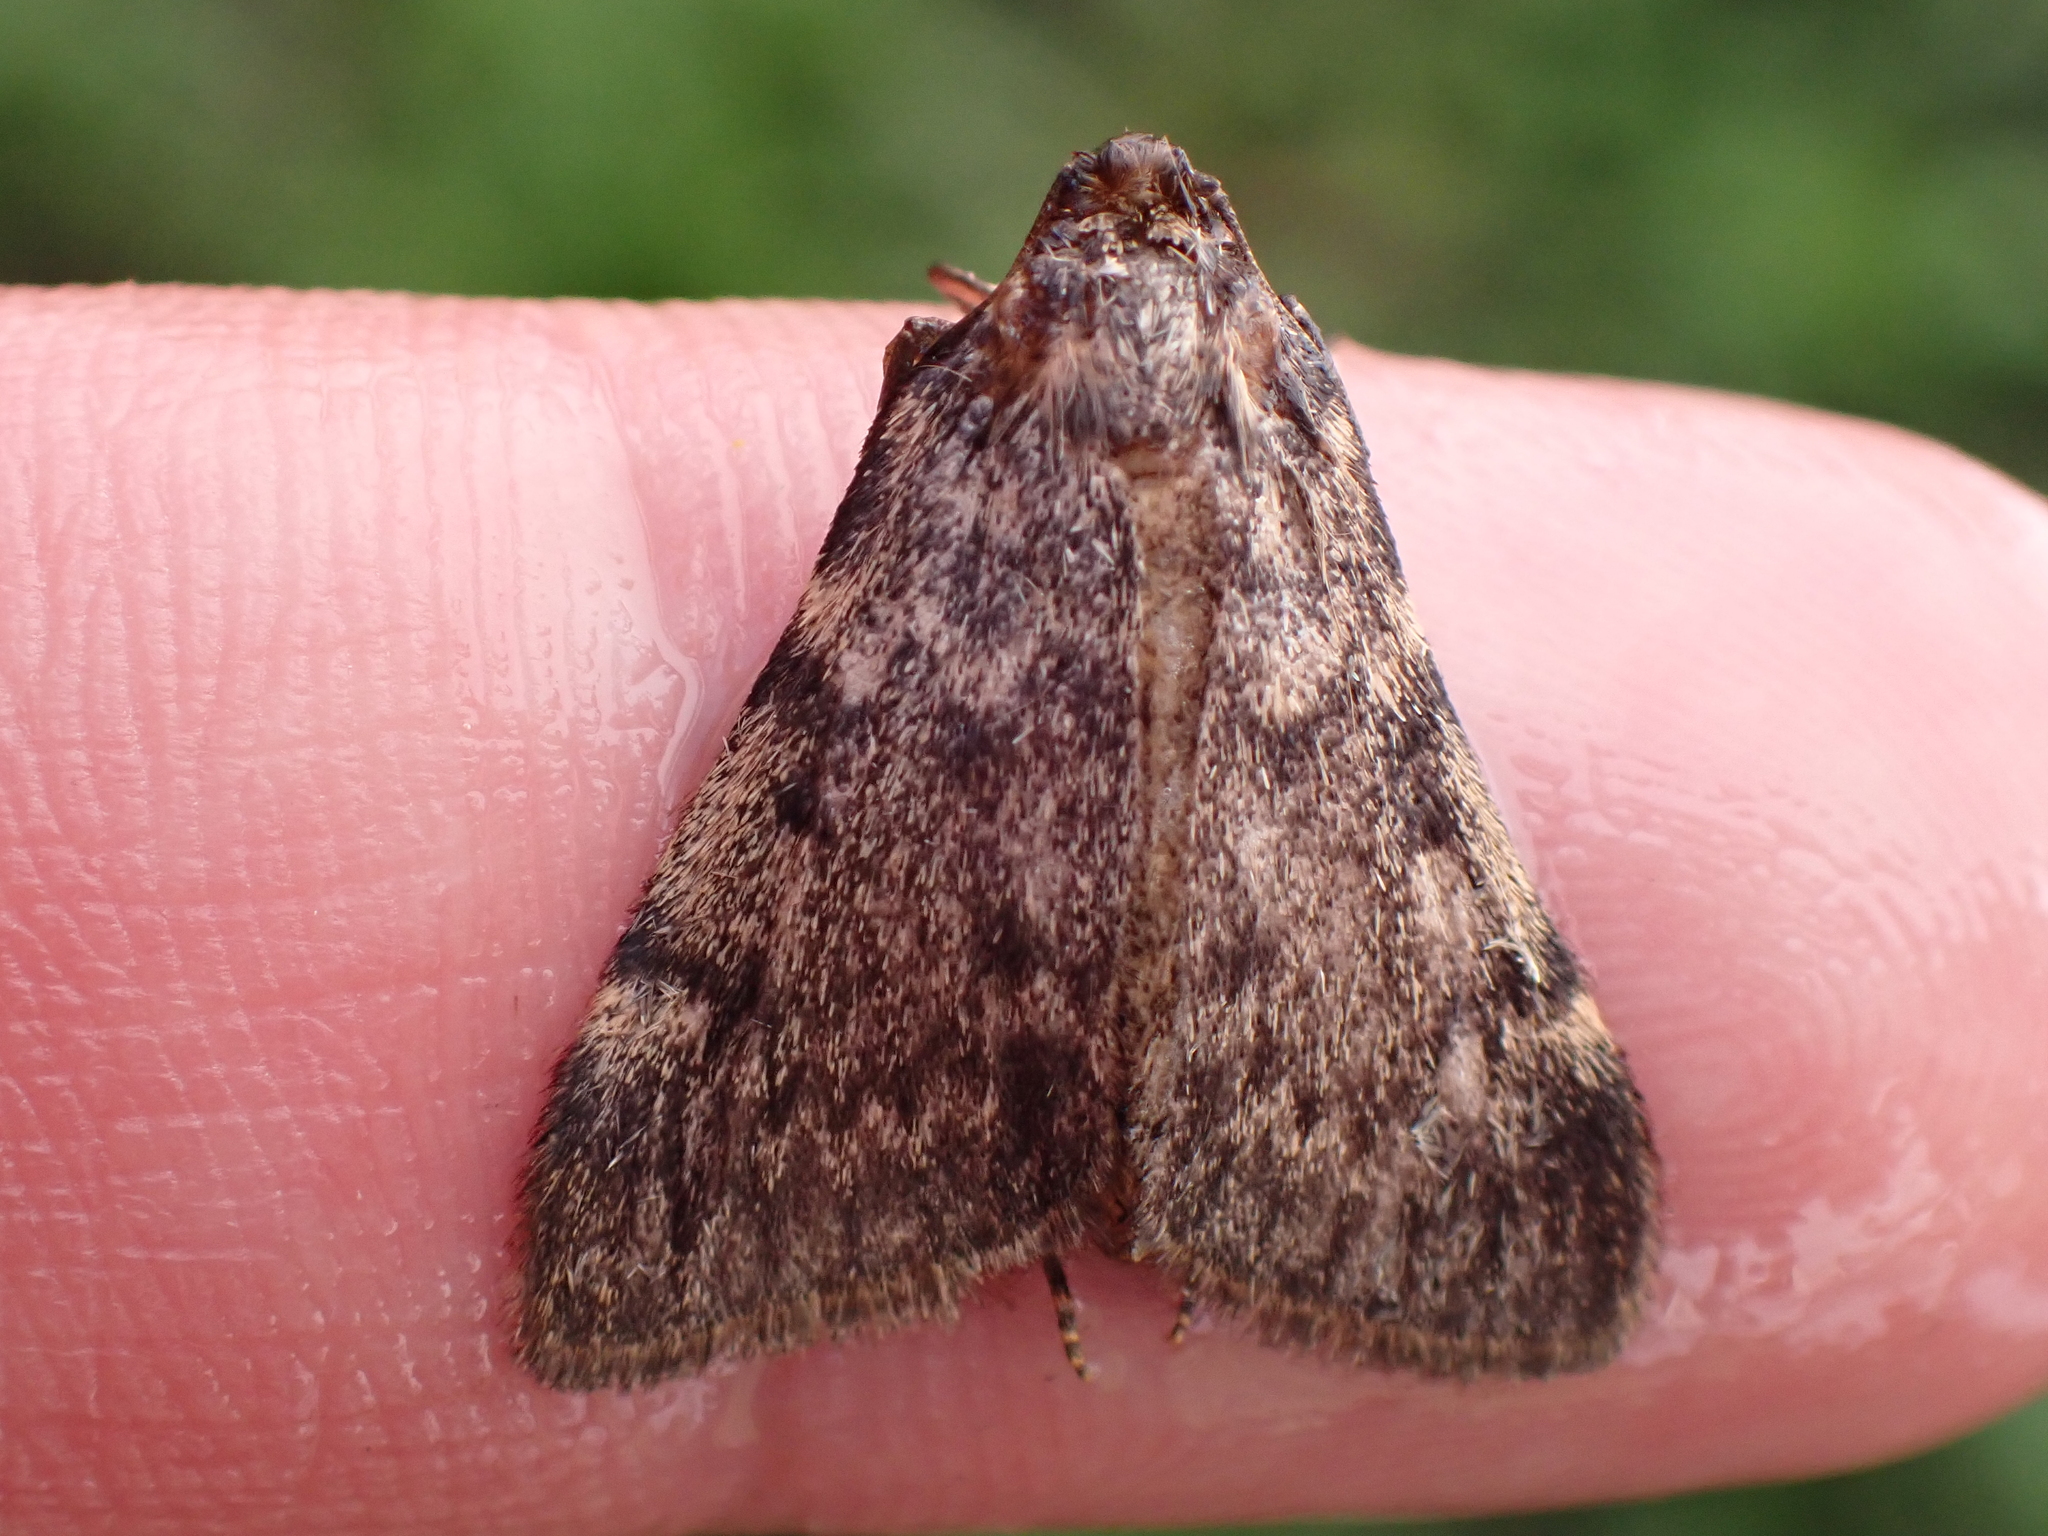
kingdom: Animalia
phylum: Arthropoda
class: Insecta
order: Lepidoptera
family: Pyralidae
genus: Aglossa
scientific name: Aglossa pinguinalis
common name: Large tabby
